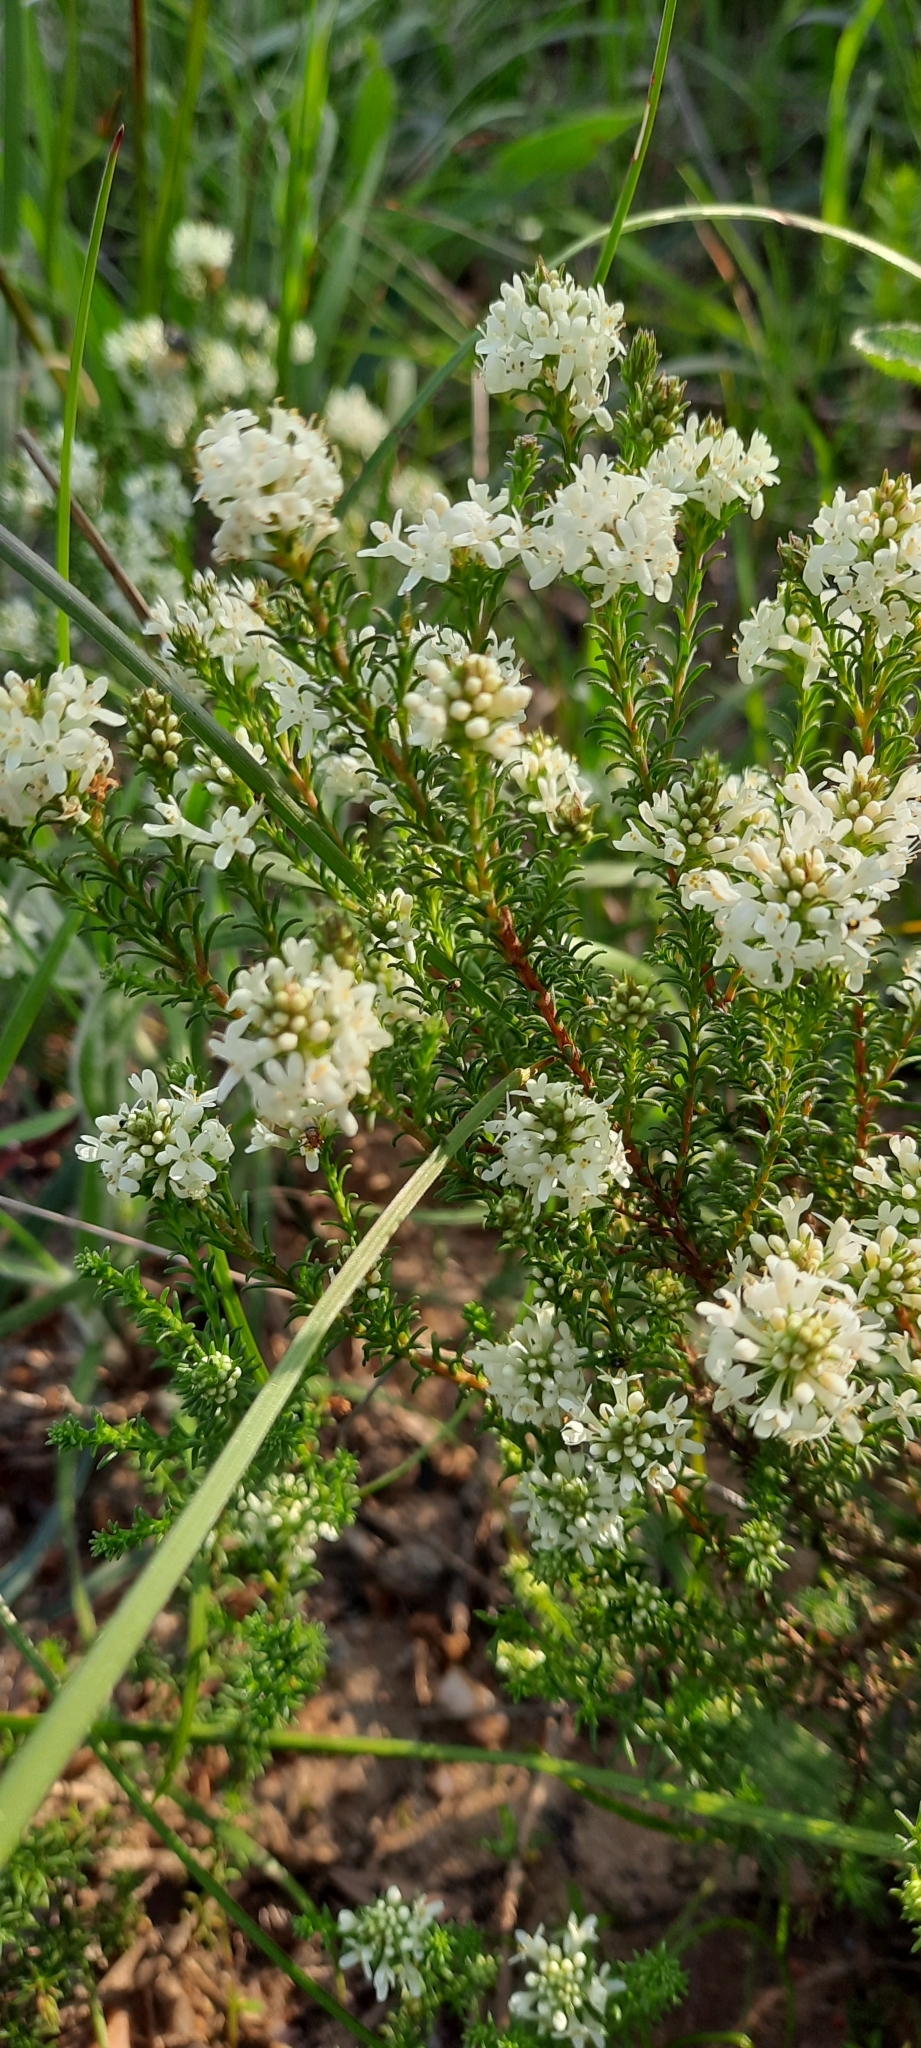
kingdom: Plantae
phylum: Tracheophyta
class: Magnoliopsida
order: Lamiales
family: Scrophulariaceae
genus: Selago
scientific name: Selago triquetra
